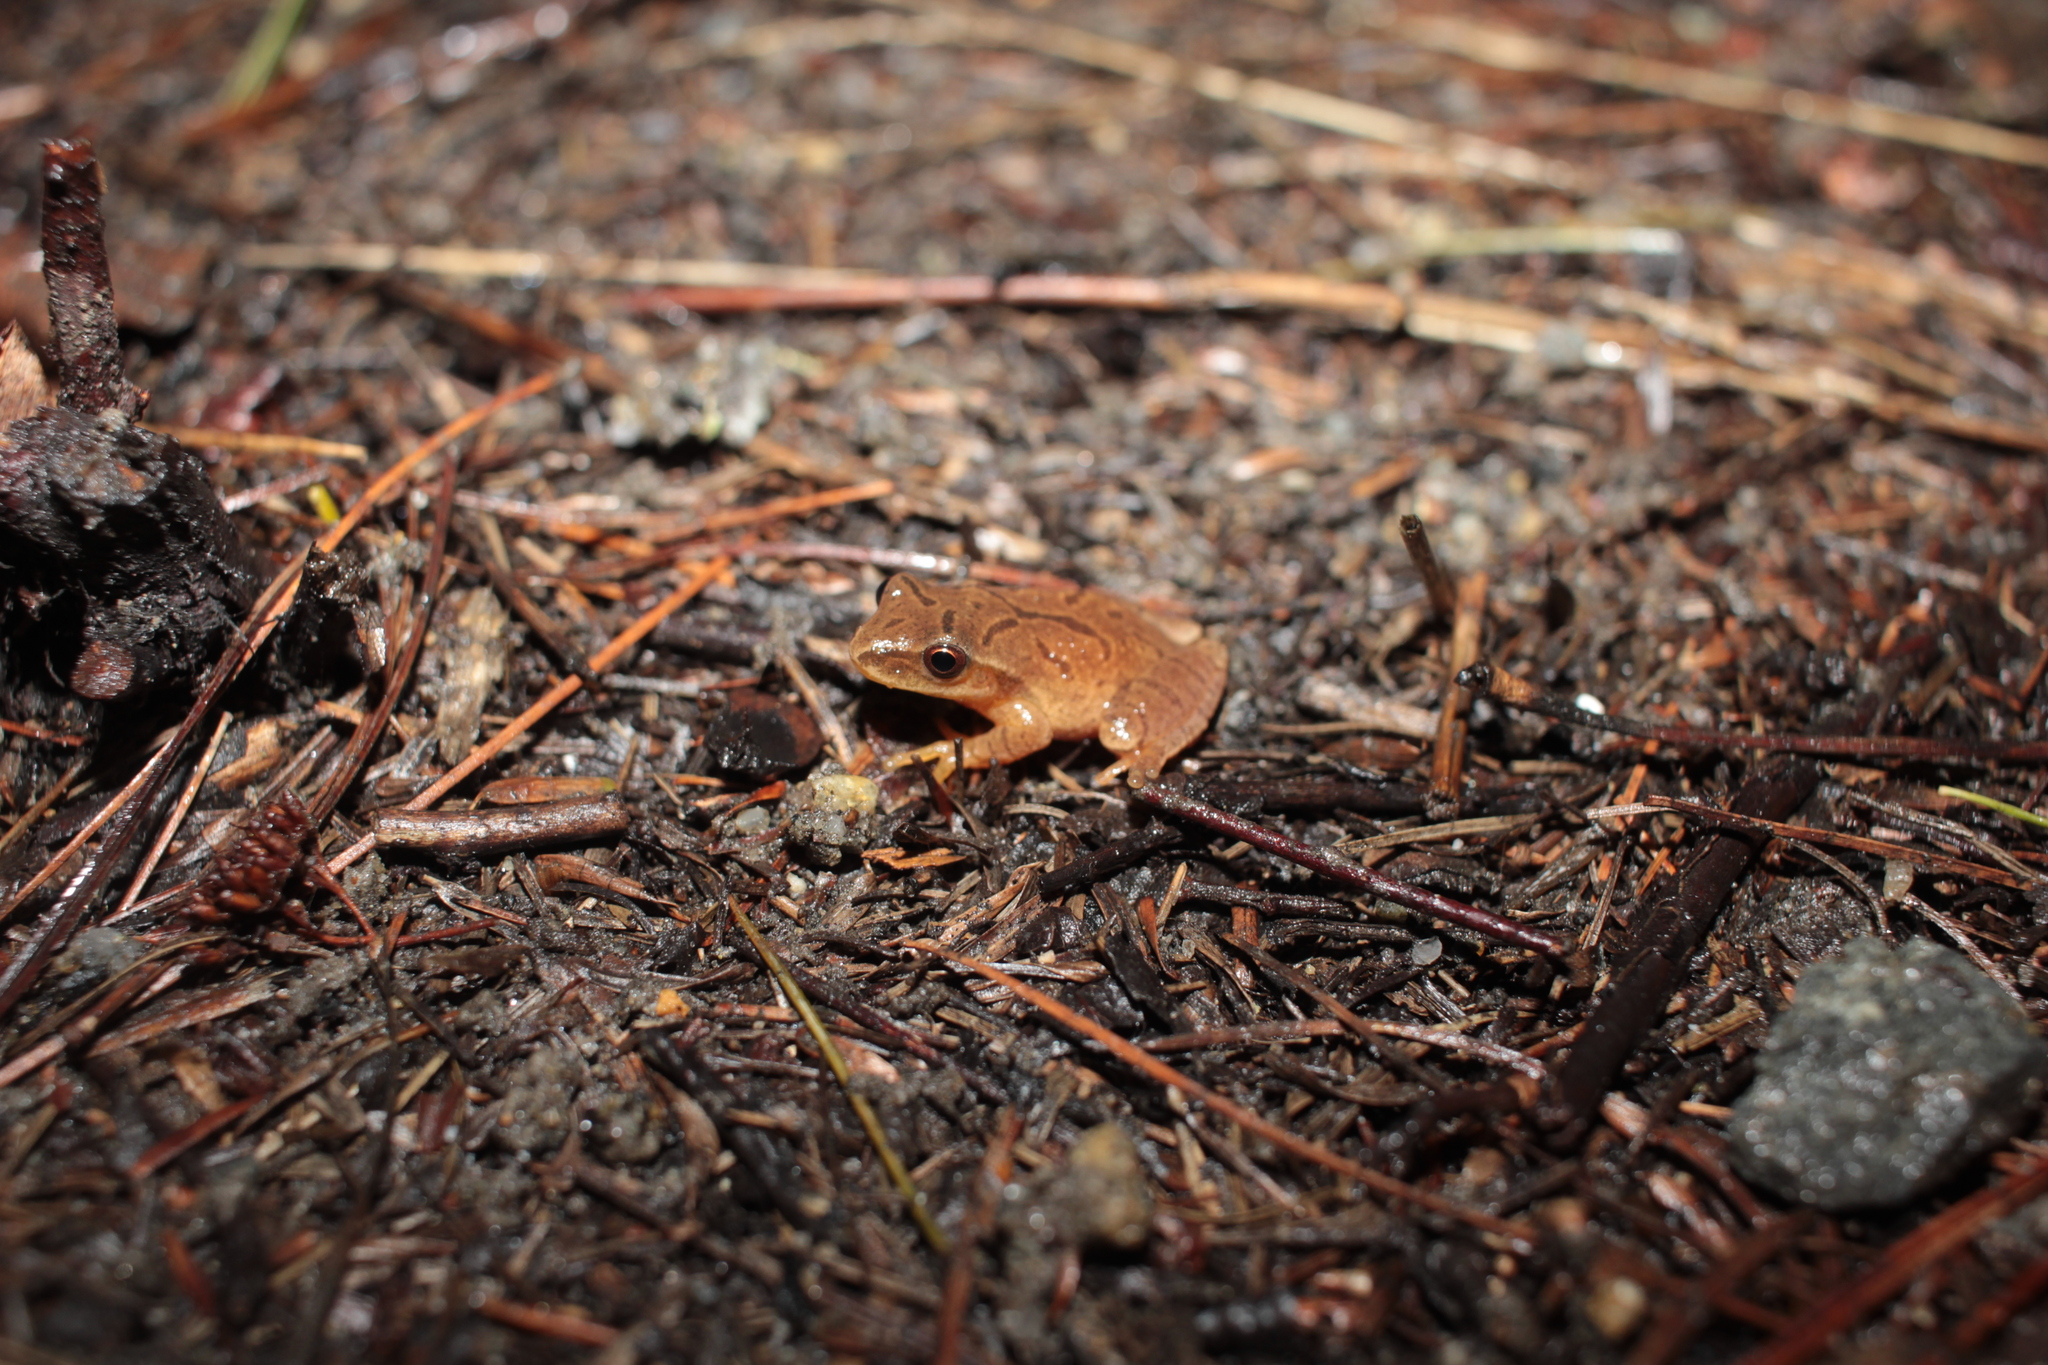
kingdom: Animalia
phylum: Chordata
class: Amphibia
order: Anura
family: Hylidae
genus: Pseudacris
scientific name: Pseudacris crucifer
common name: Spring peeper
